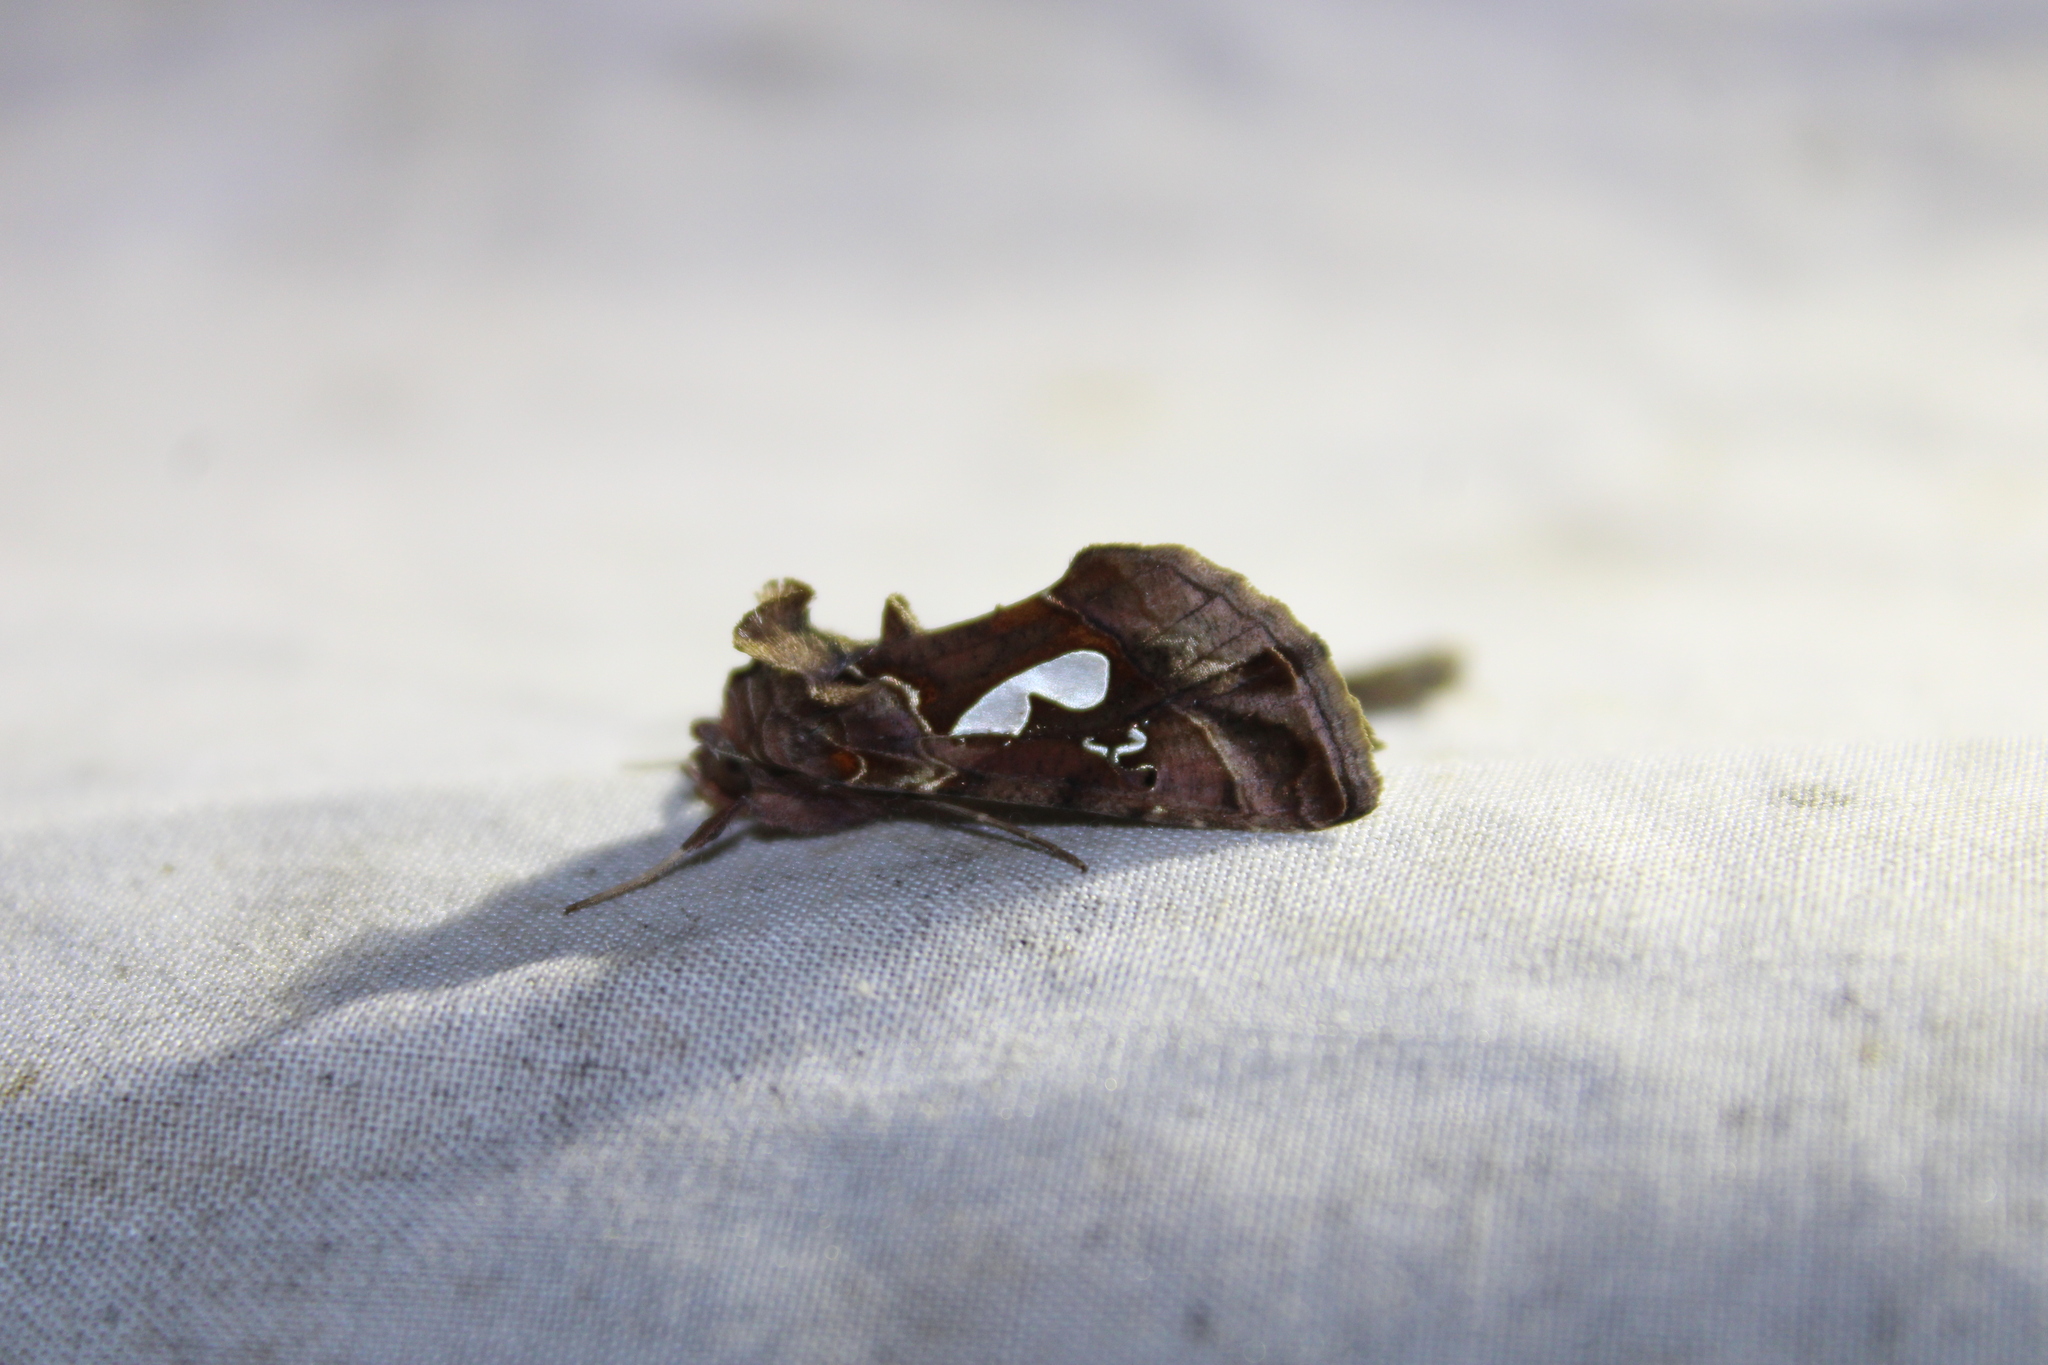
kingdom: Animalia
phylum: Arthropoda
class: Insecta
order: Lepidoptera
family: Noctuidae
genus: Megalographa
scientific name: Megalographa biloba
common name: Cutworm
